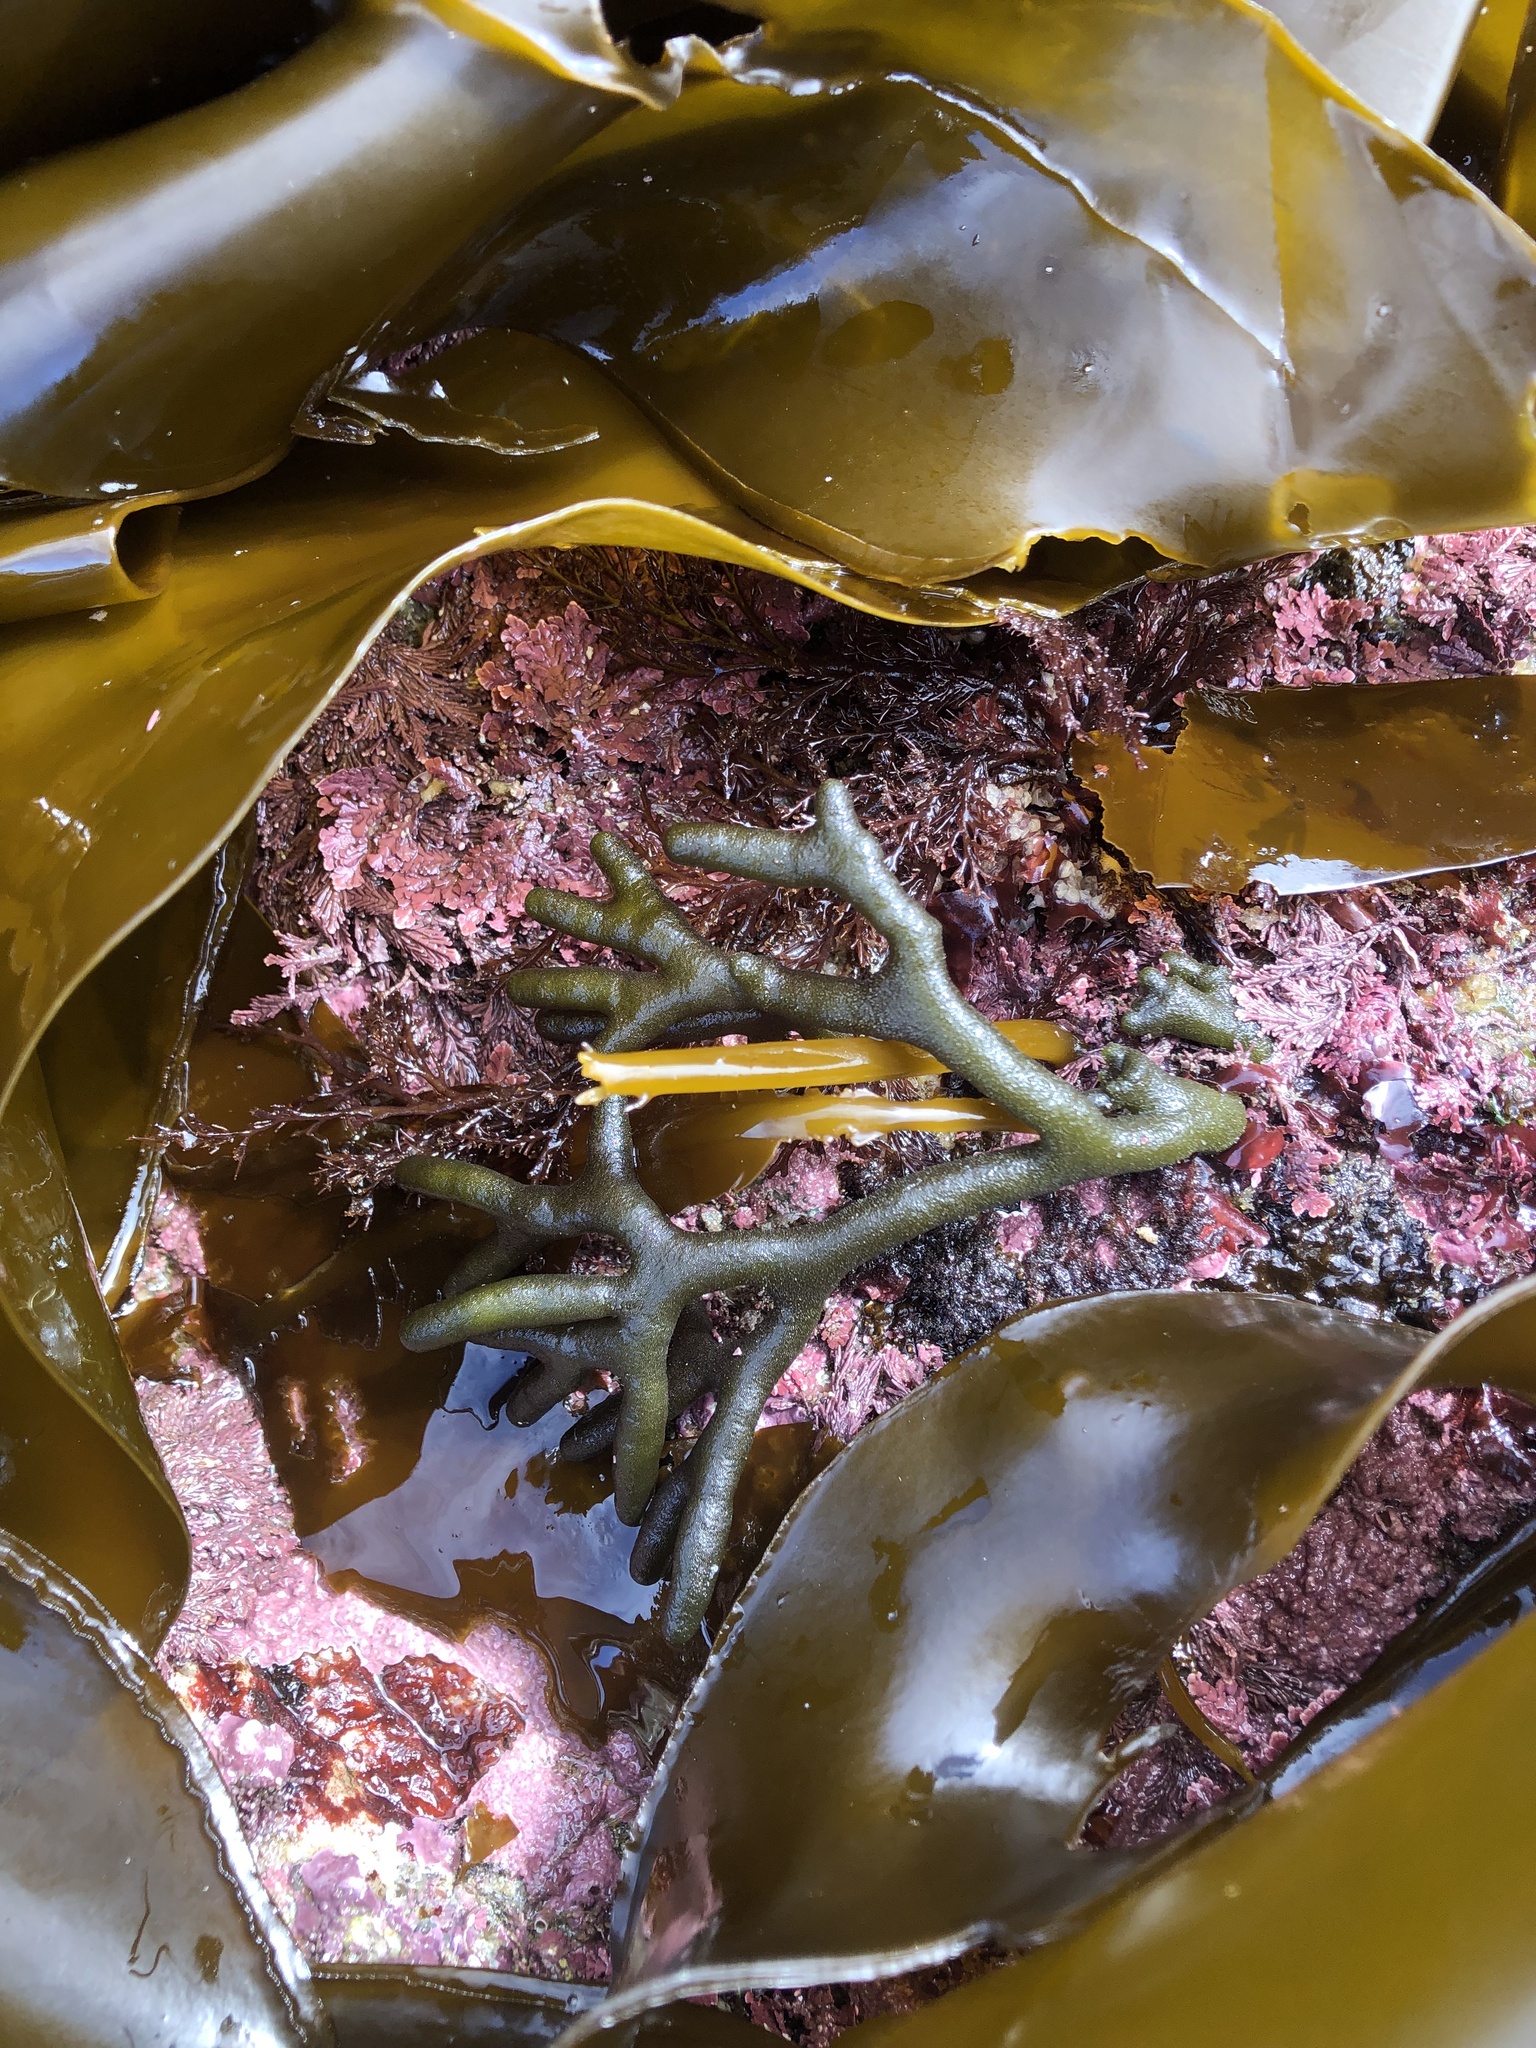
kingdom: Plantae
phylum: Chlorophyta
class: Ulvophyceae
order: Bryopsidales
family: Codiaceae
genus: Codium
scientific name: Codium fragile
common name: Dead man's fingers
